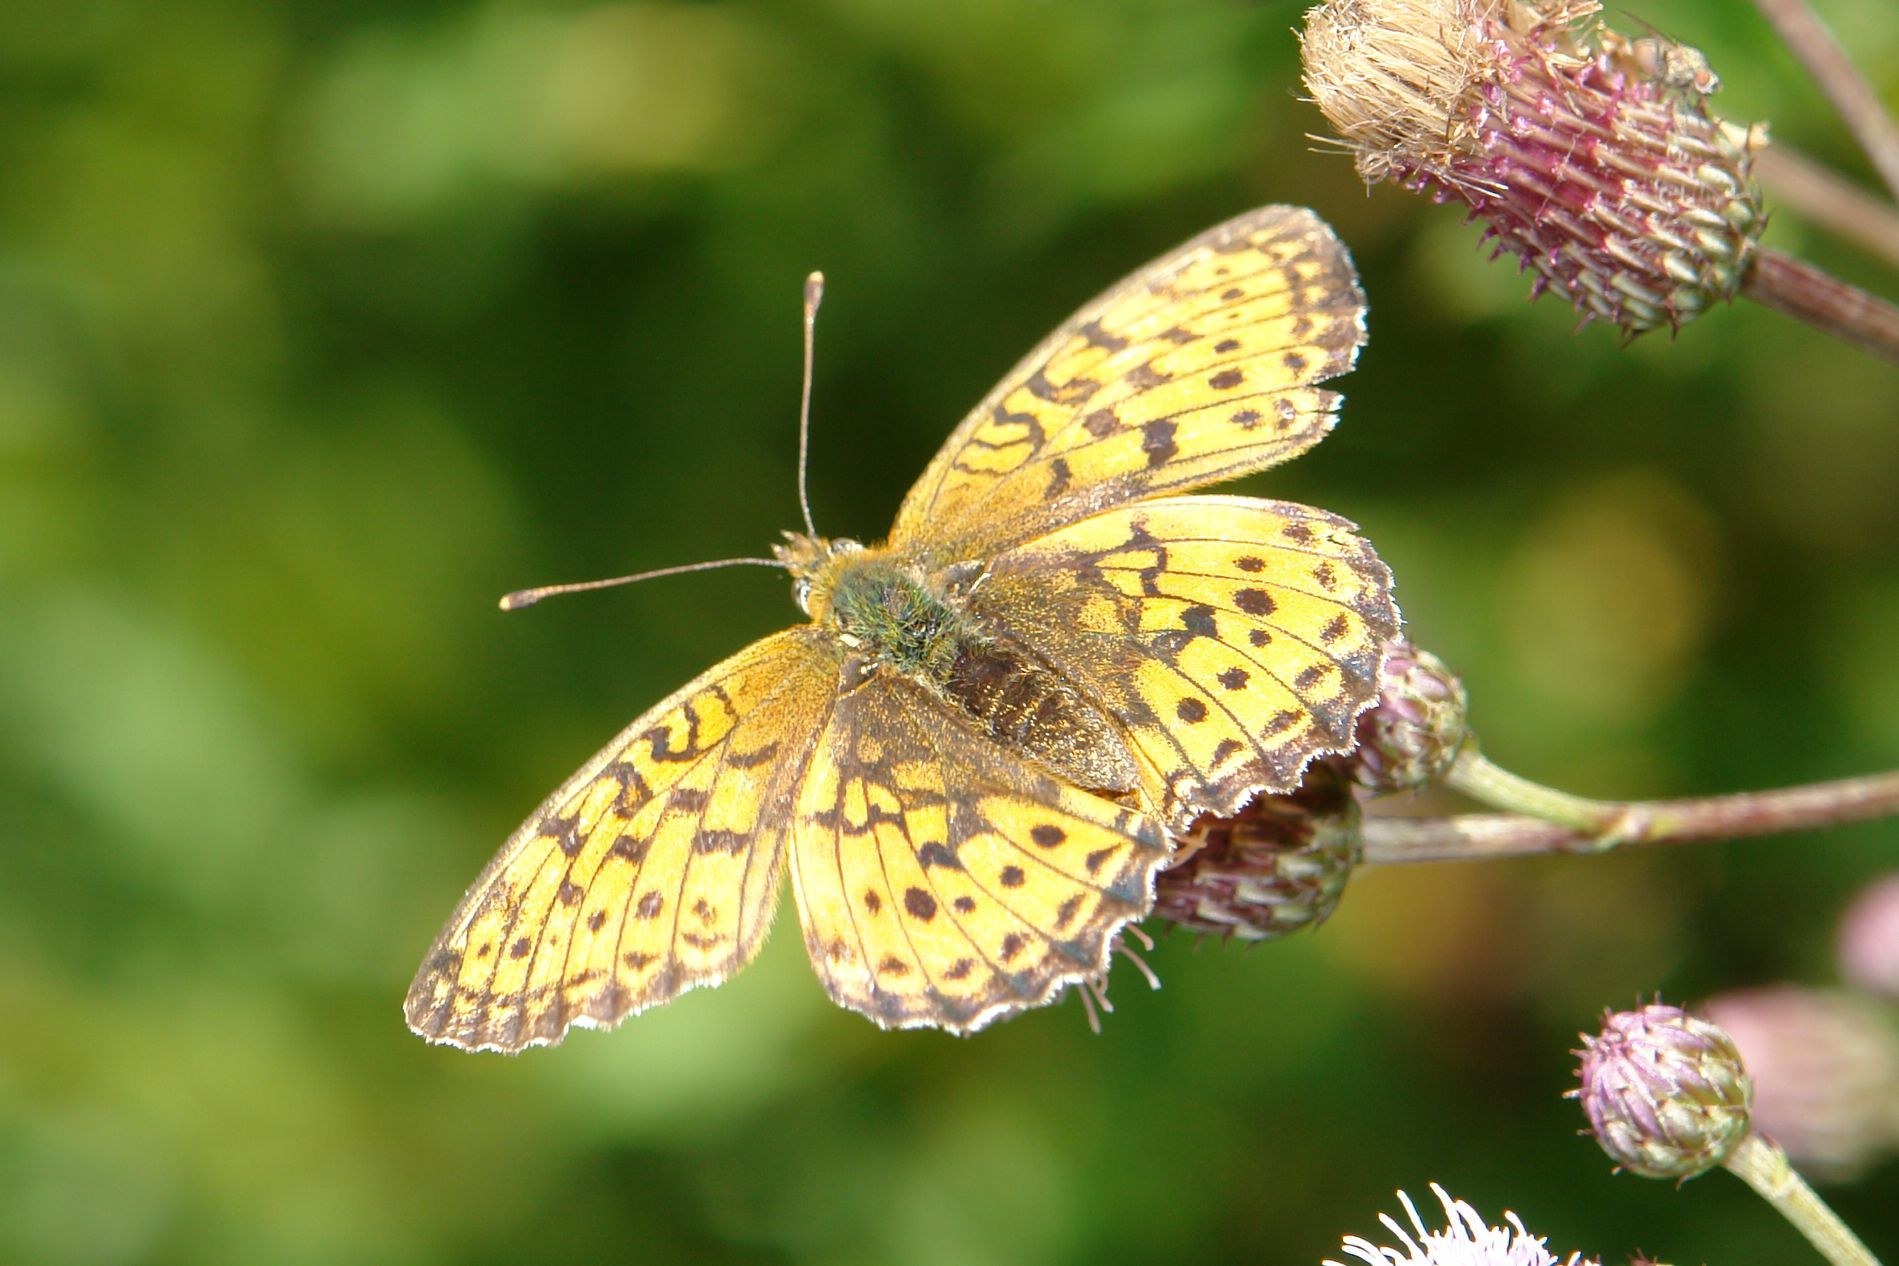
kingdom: Animalia
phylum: Arthropoda
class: Insecta
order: Lepidoptera
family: Nymphalidae
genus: Brenthis
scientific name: Brenthis ino
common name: Lesser marbled fritillary
